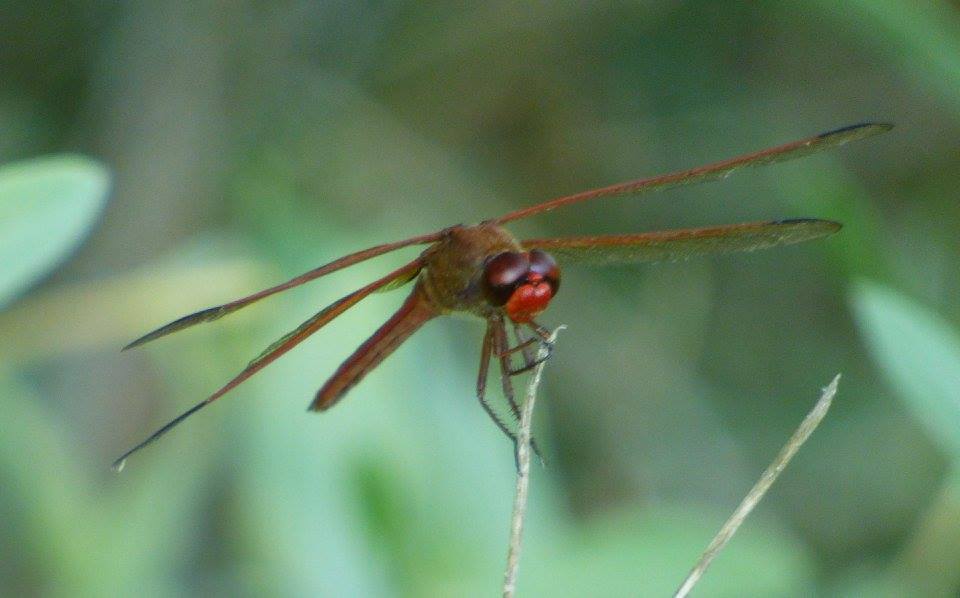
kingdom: Animalia
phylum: Arthropoda
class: Insecta
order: Odonata
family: Libellulidae
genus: Libellula
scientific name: Libellula needhami
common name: Needham's skimmer
